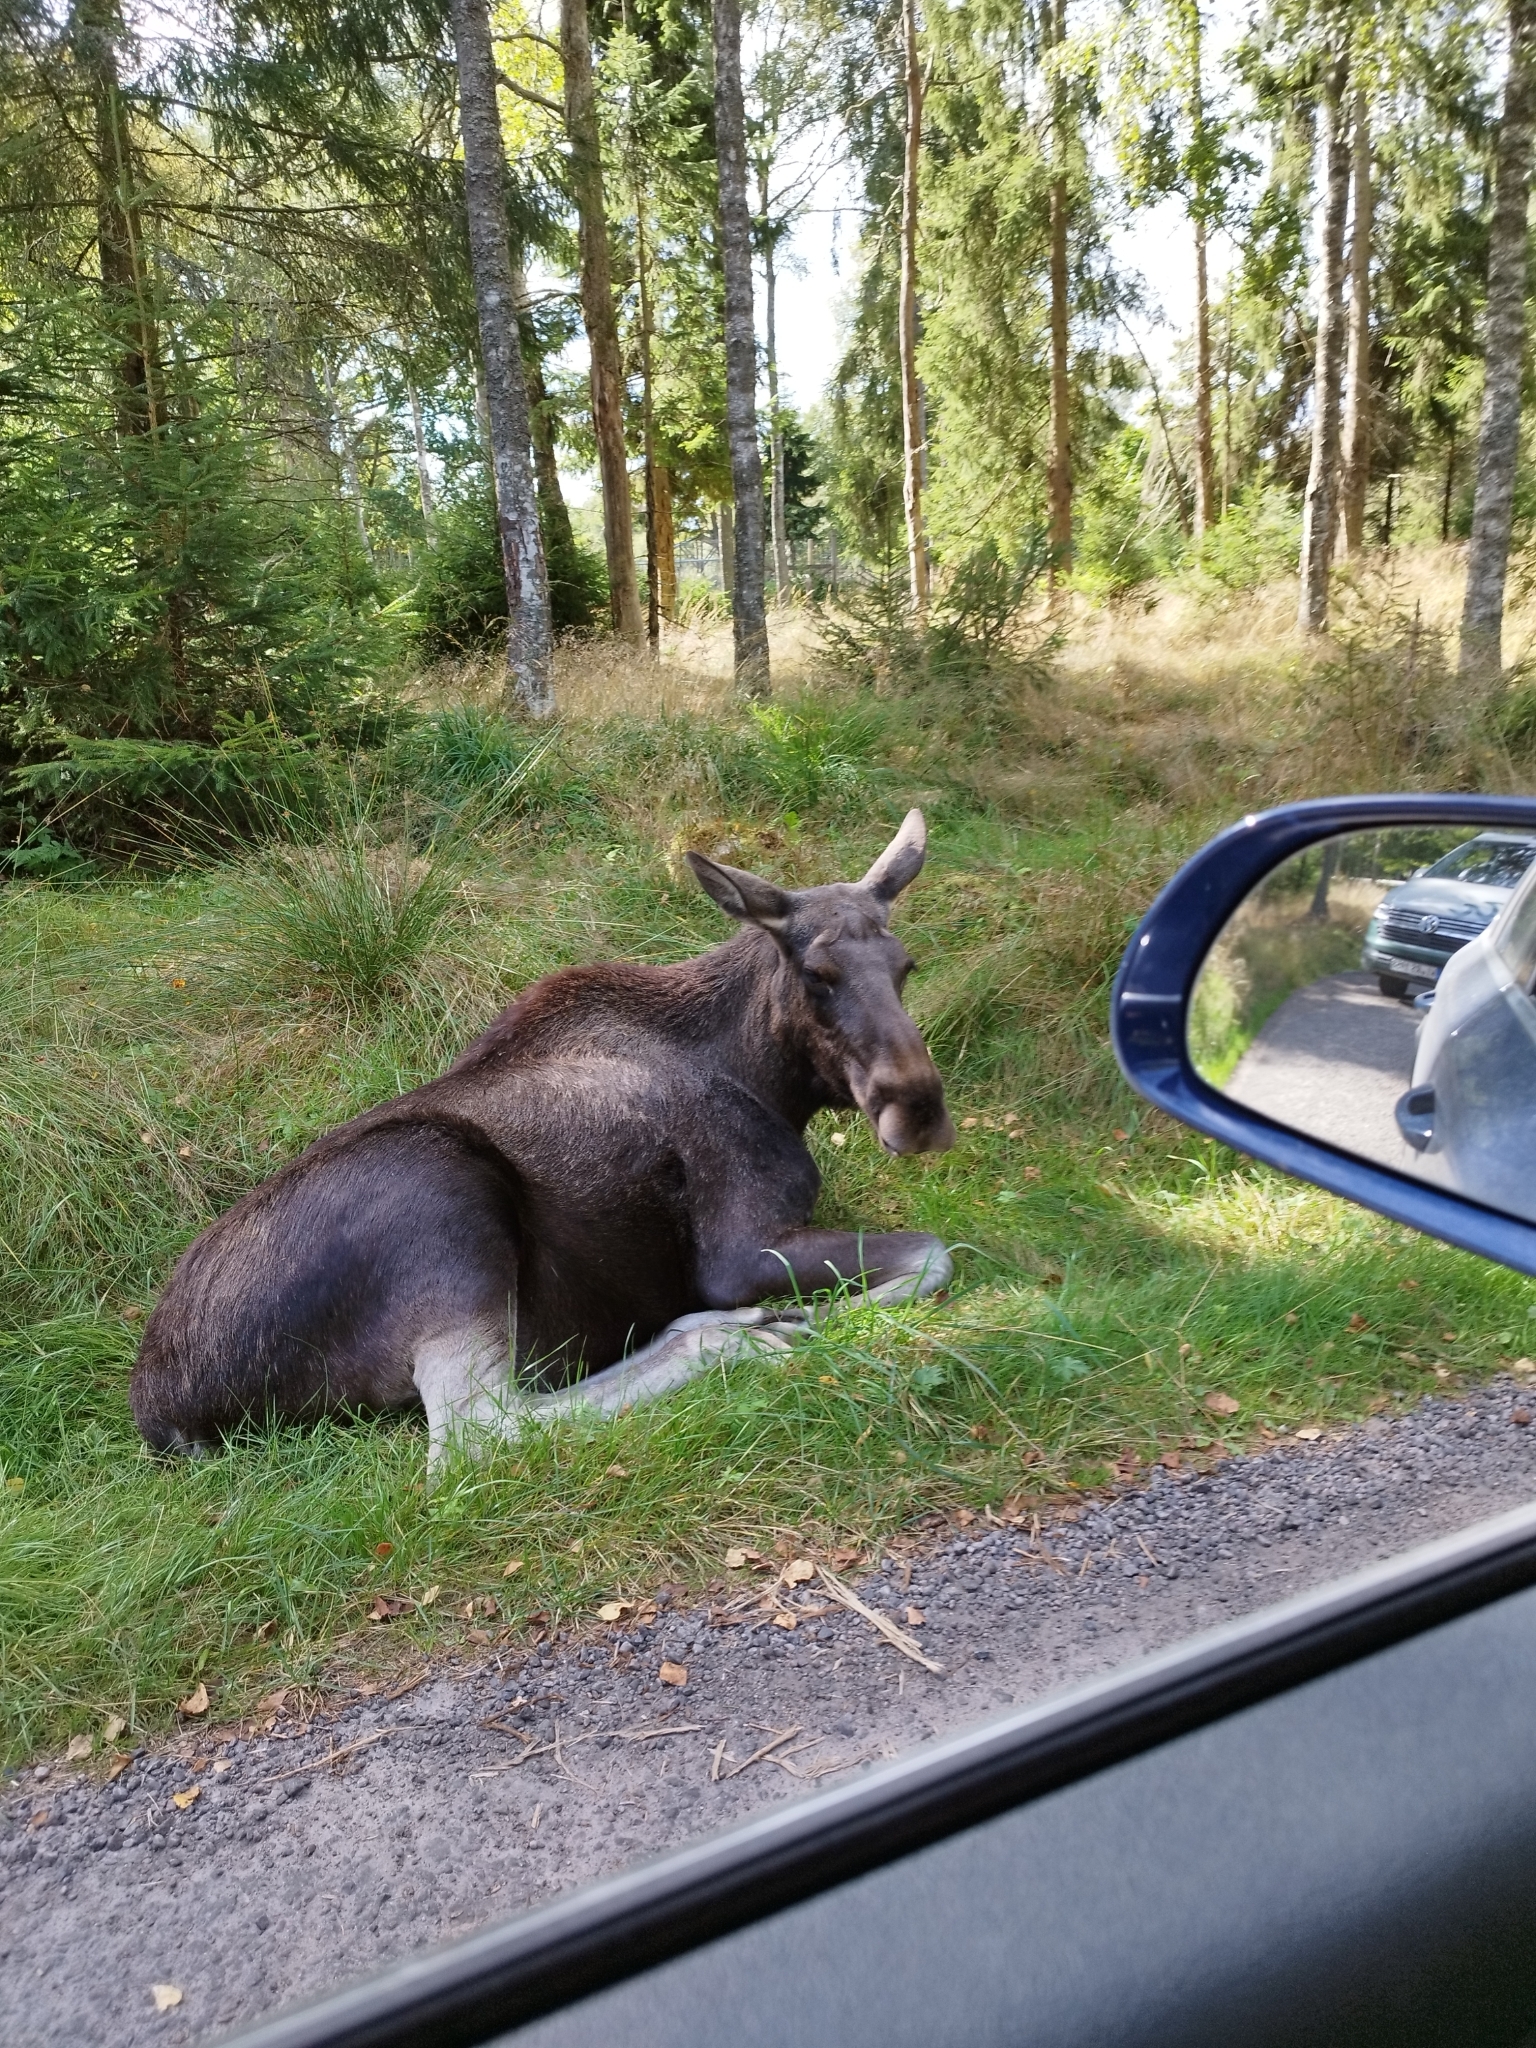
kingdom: Animalia
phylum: Chordata
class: Mammalia
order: Artiodactyla
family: Cervidae
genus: Alces
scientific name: Alces alces
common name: Moose
